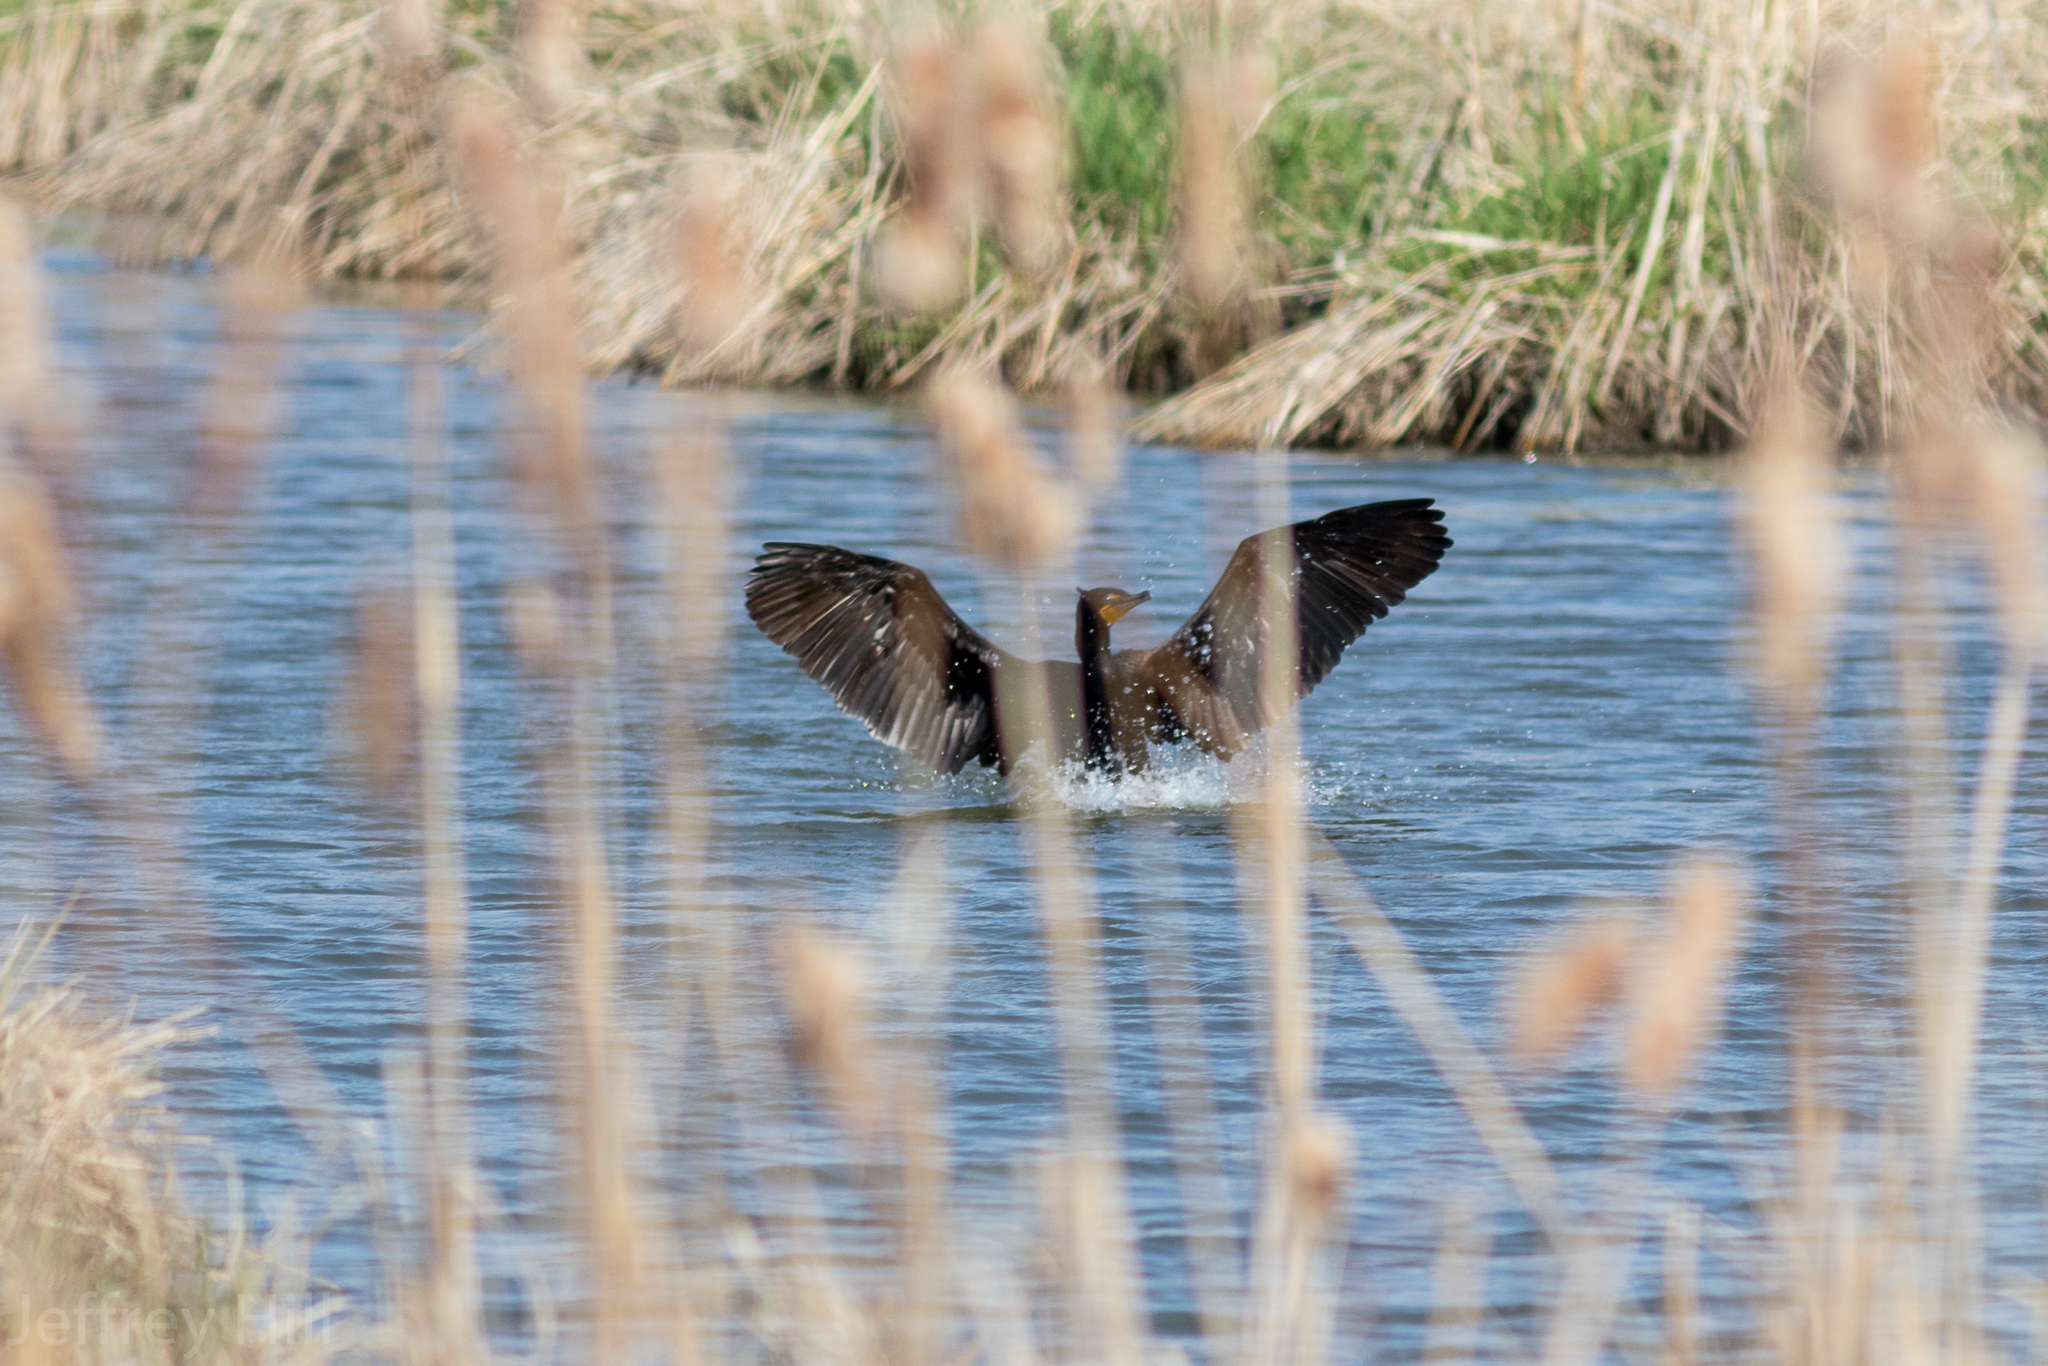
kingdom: Animalia
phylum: Chordata
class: Aves
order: Suliformes
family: Phalacrocoracidae
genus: Phalacrocorax
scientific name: Phalacrocorax auritus
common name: Double-crested cormorant
